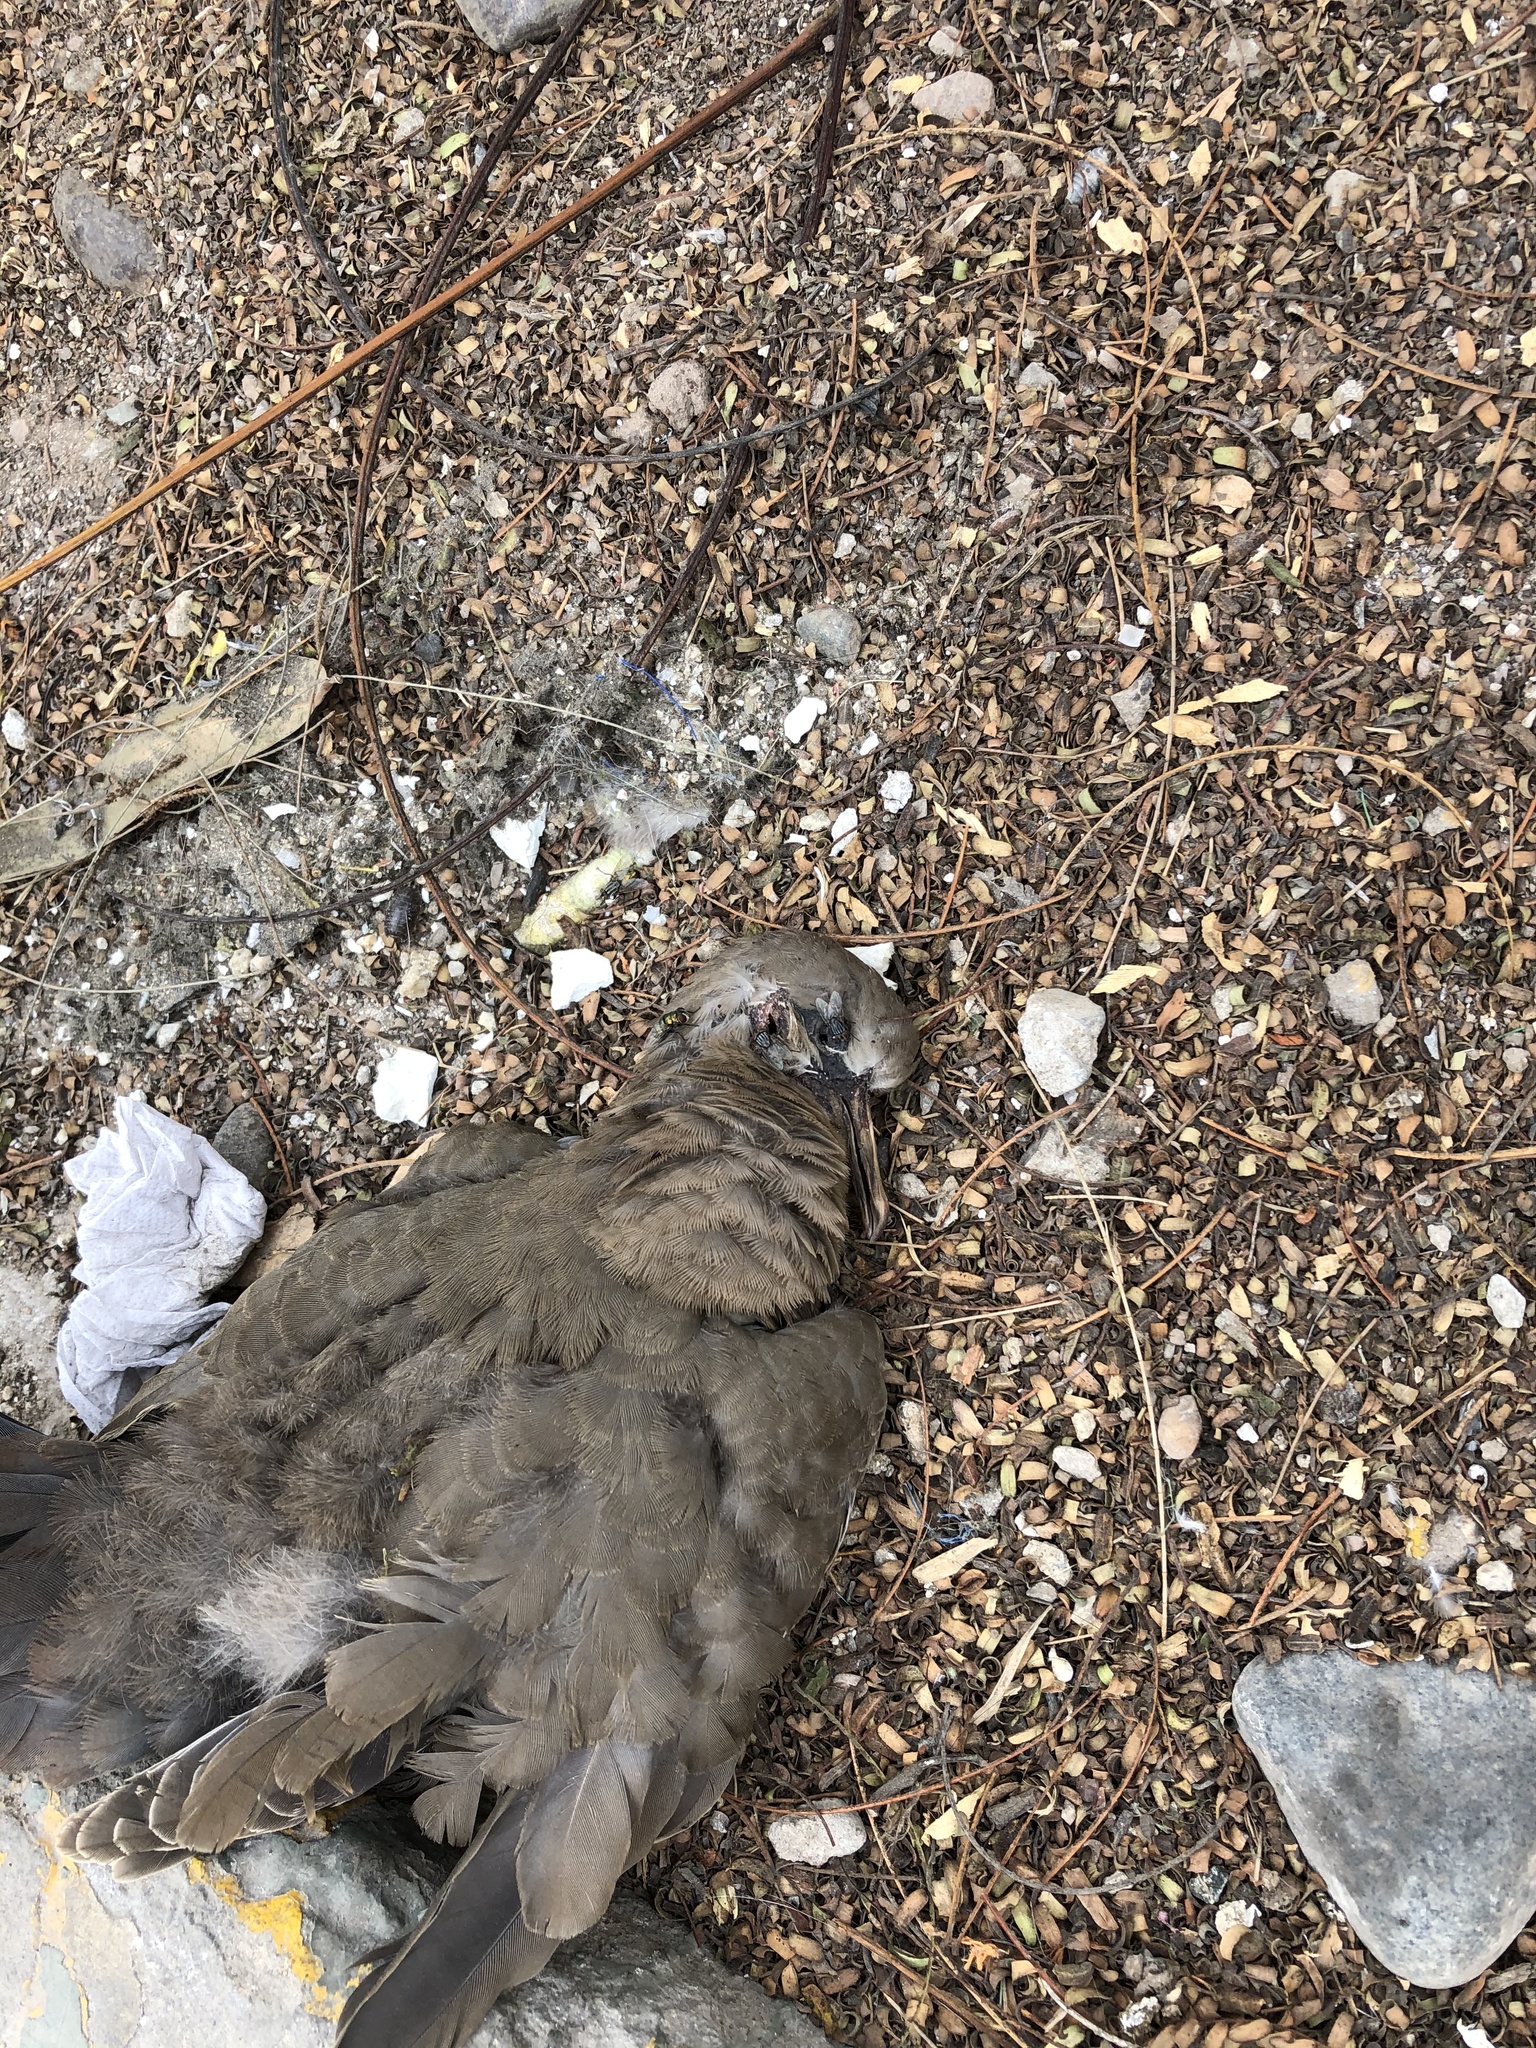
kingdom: Animalia
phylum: Chordata
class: Aves
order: Columbiformes
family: Columbidae
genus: Zenaida
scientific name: Zenaida meloda
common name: West peruvian dove
